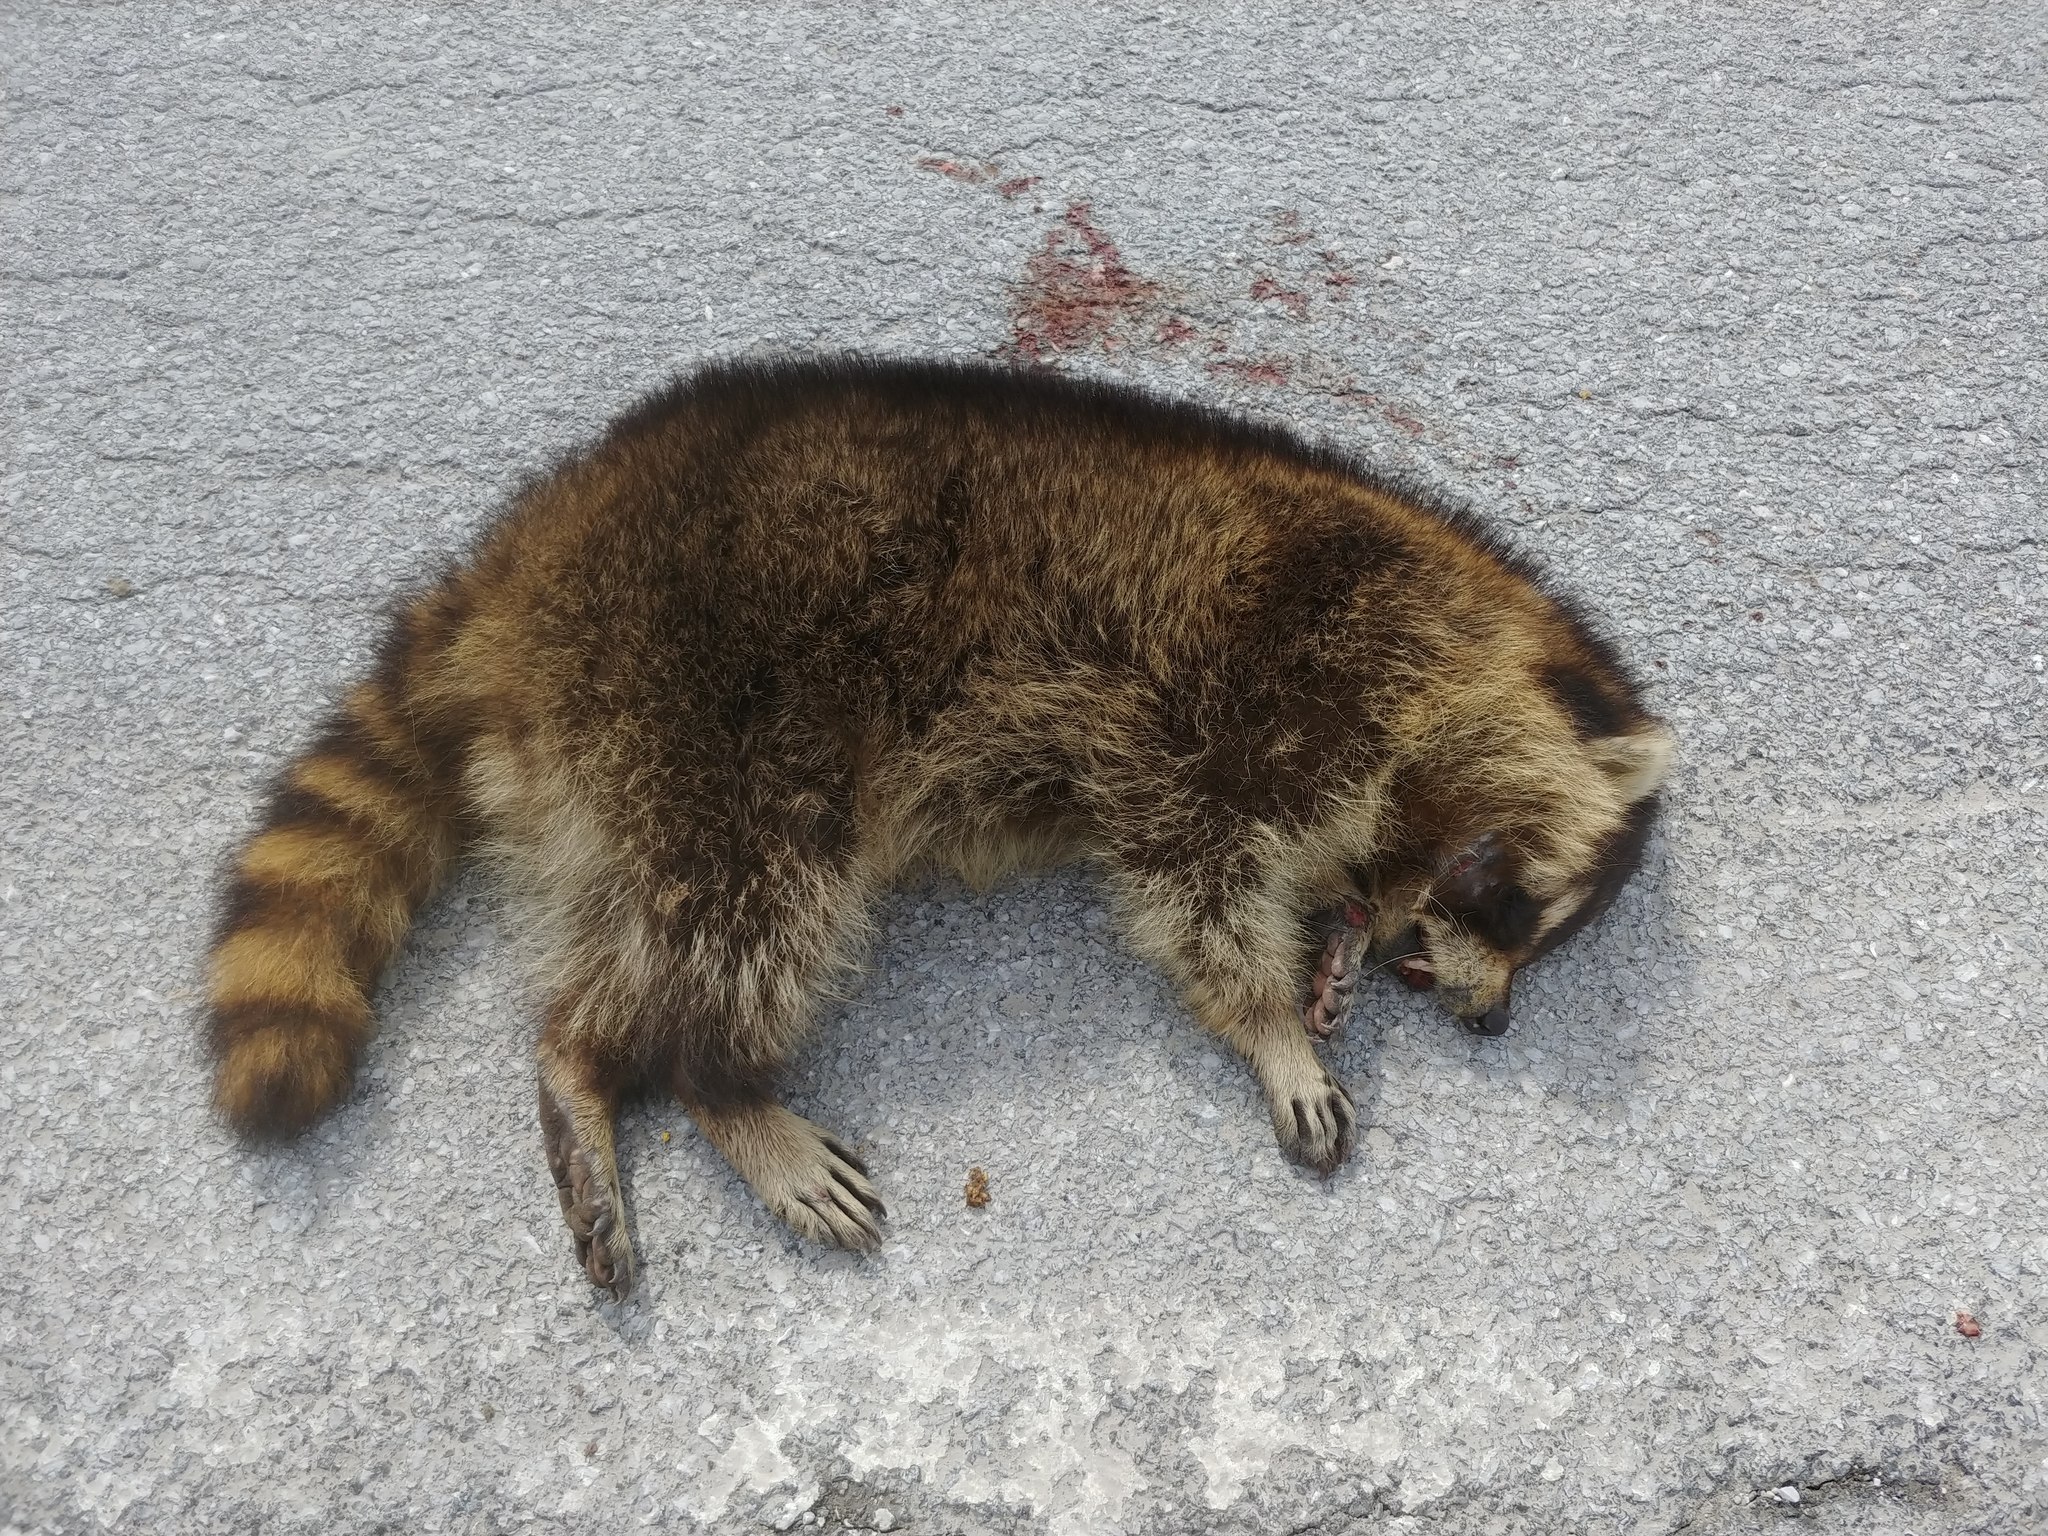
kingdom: Animalia
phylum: Chordata
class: Mammalia
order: Carnivora
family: Procyonidae
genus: Procyon
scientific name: Procyon lotor
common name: Raccoon
